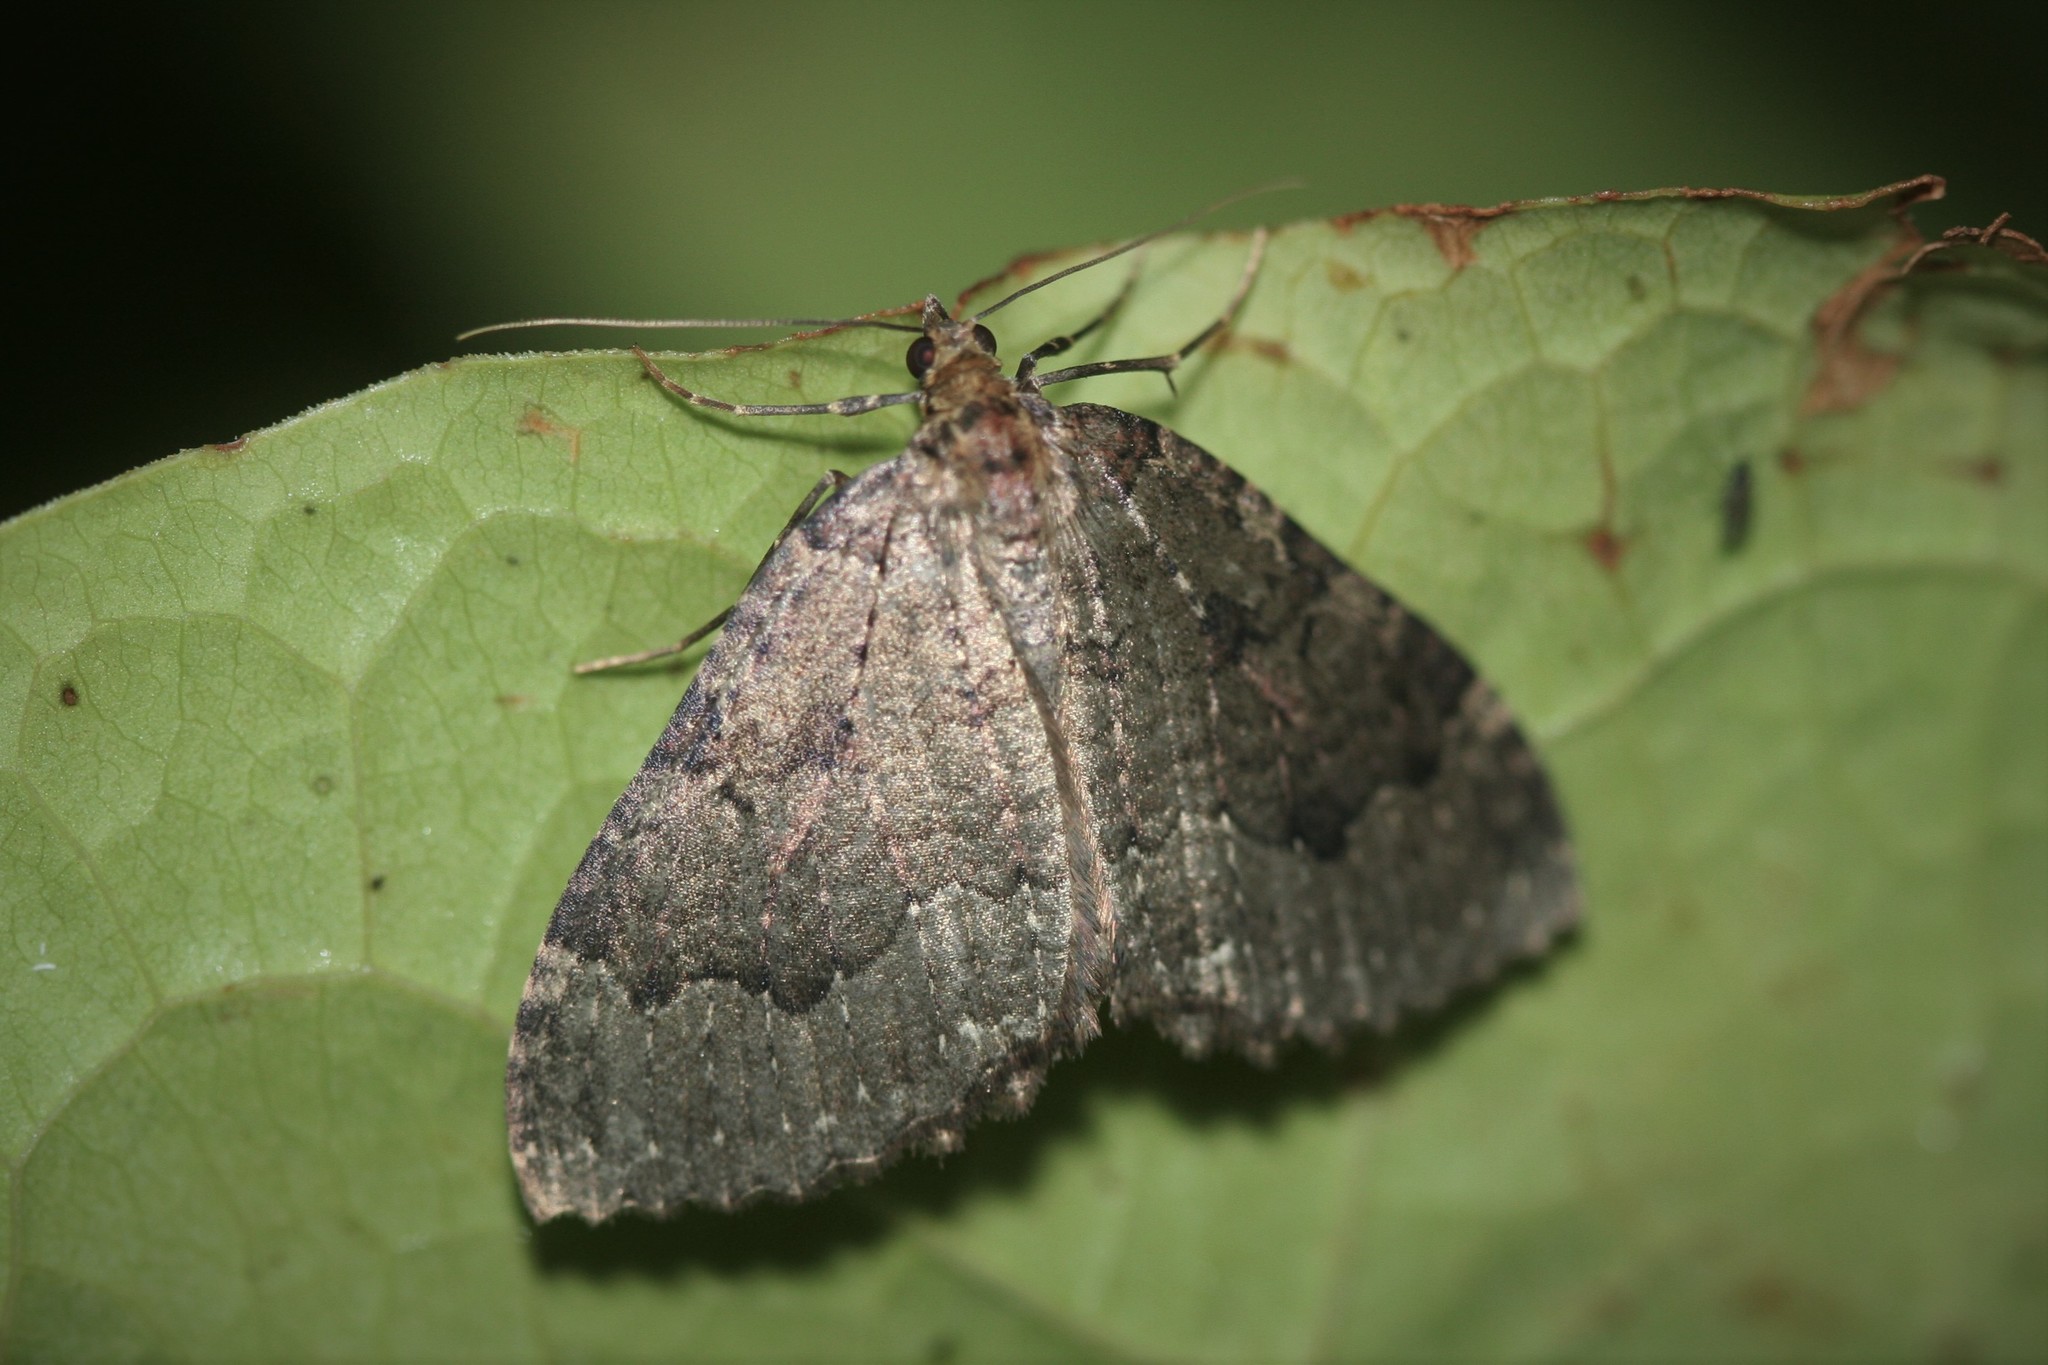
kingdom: Animalia
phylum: Arthropoda
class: Insecta
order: Lepidoptera
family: Geometridae
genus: Triphosa
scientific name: Triphosa dubitata
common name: Tissue
